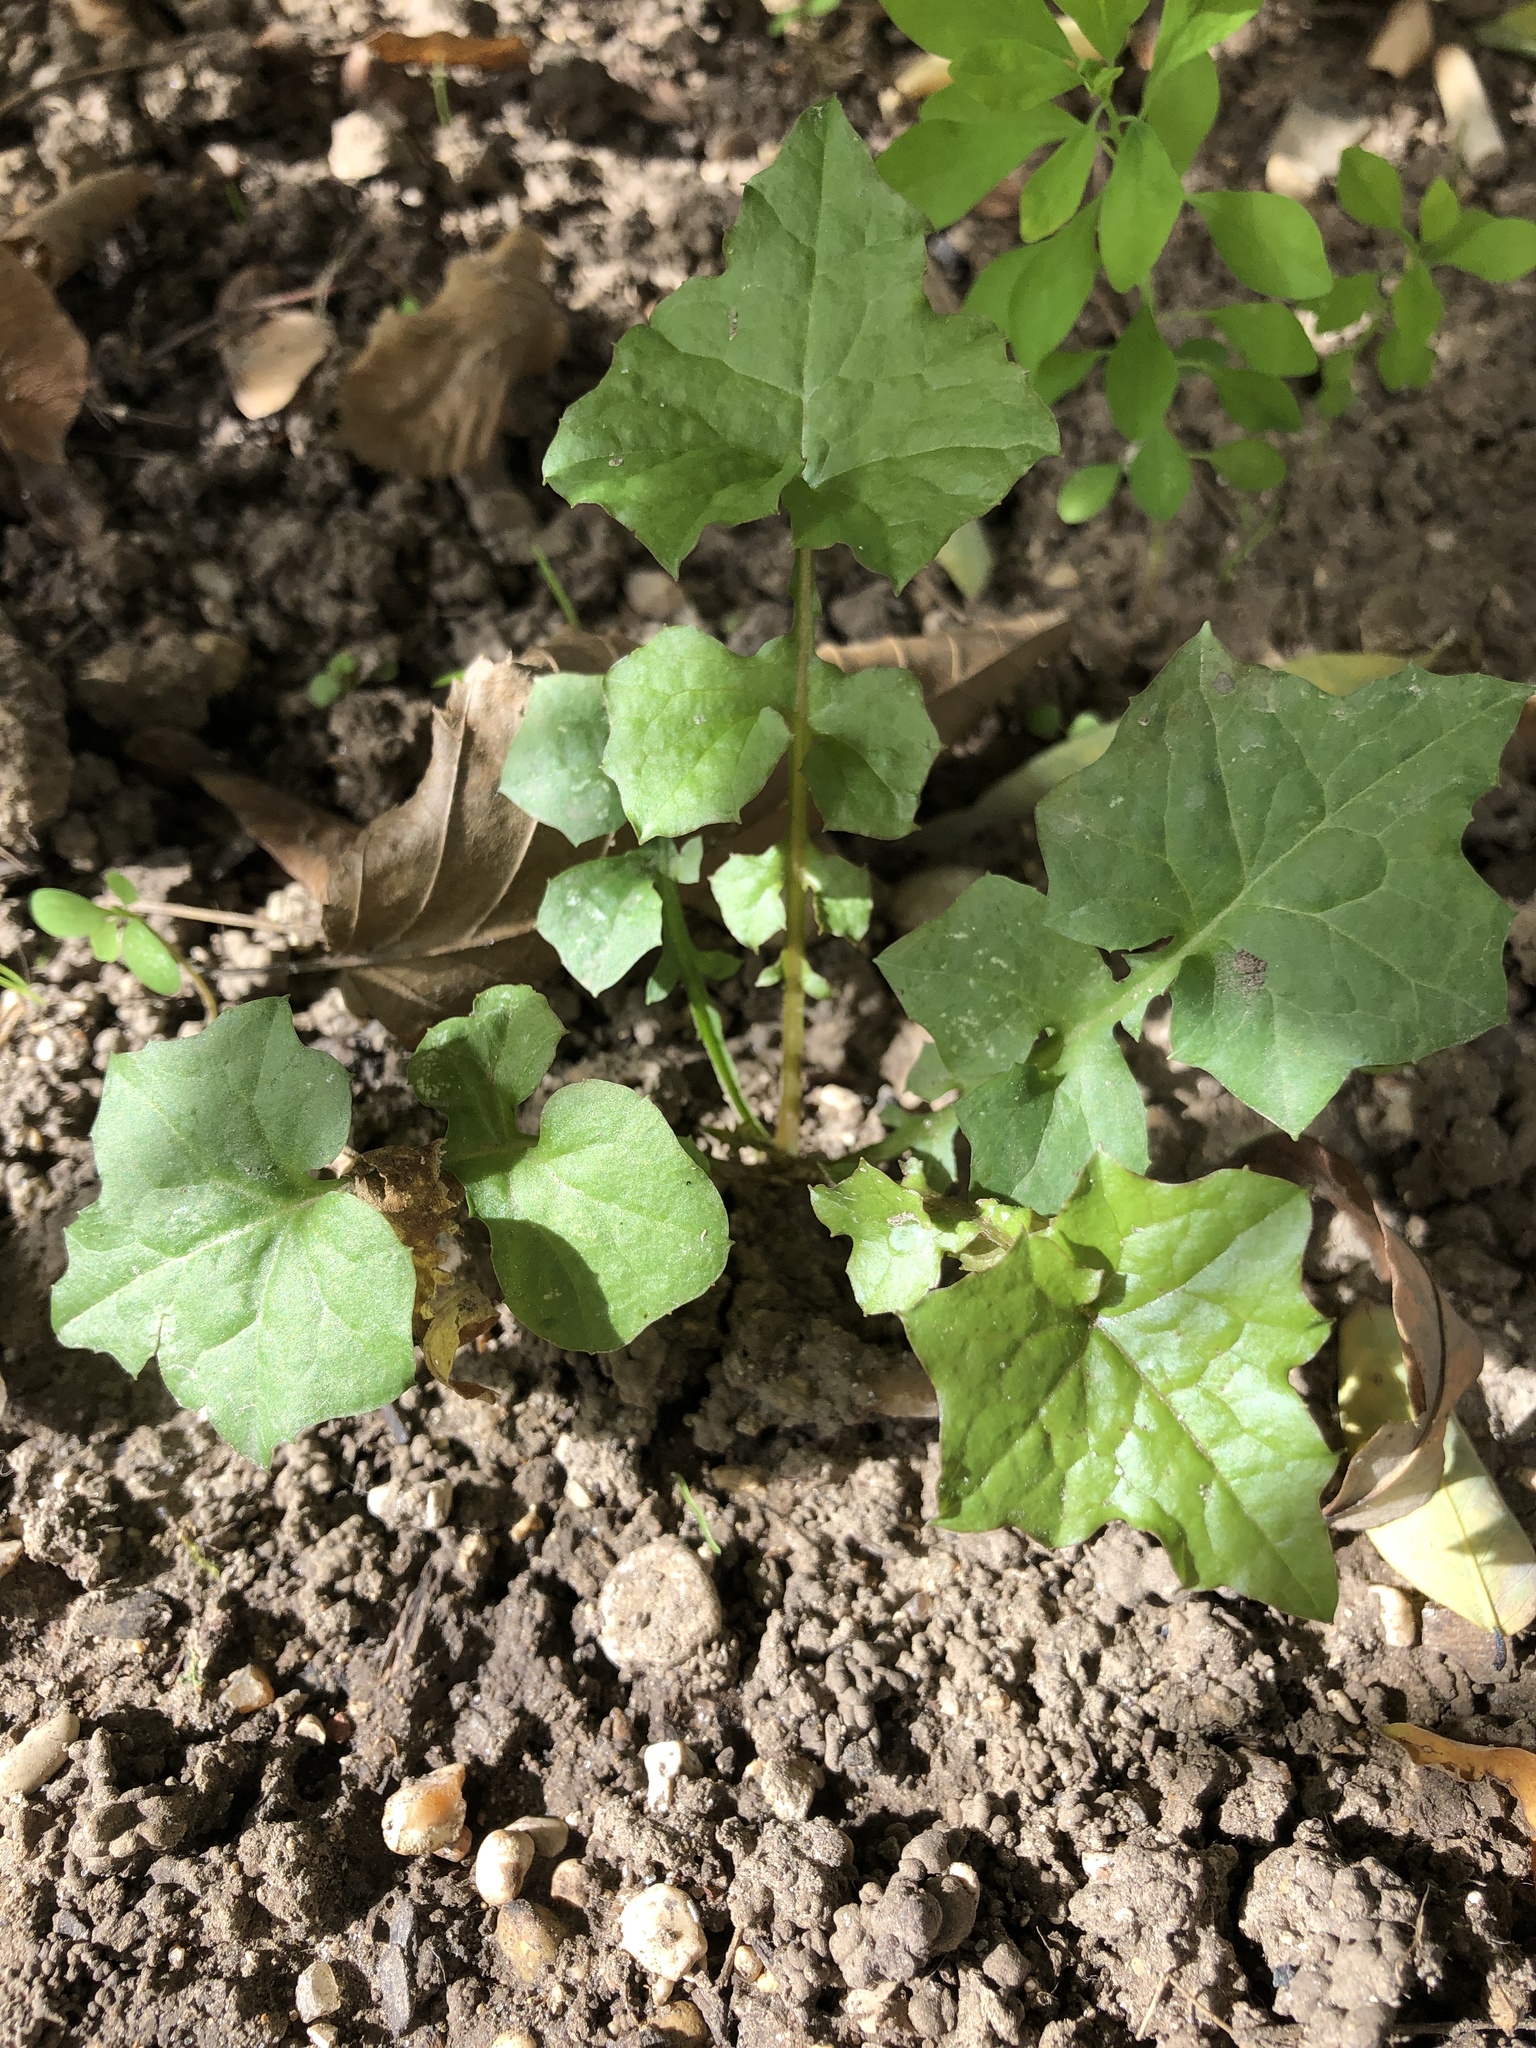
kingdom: Plantae
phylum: Tracheophyta
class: Magnoliopsida
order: Asterales
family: Asteraceae
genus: Mycelis
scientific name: Mycelis muralis
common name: Wall lettuce
